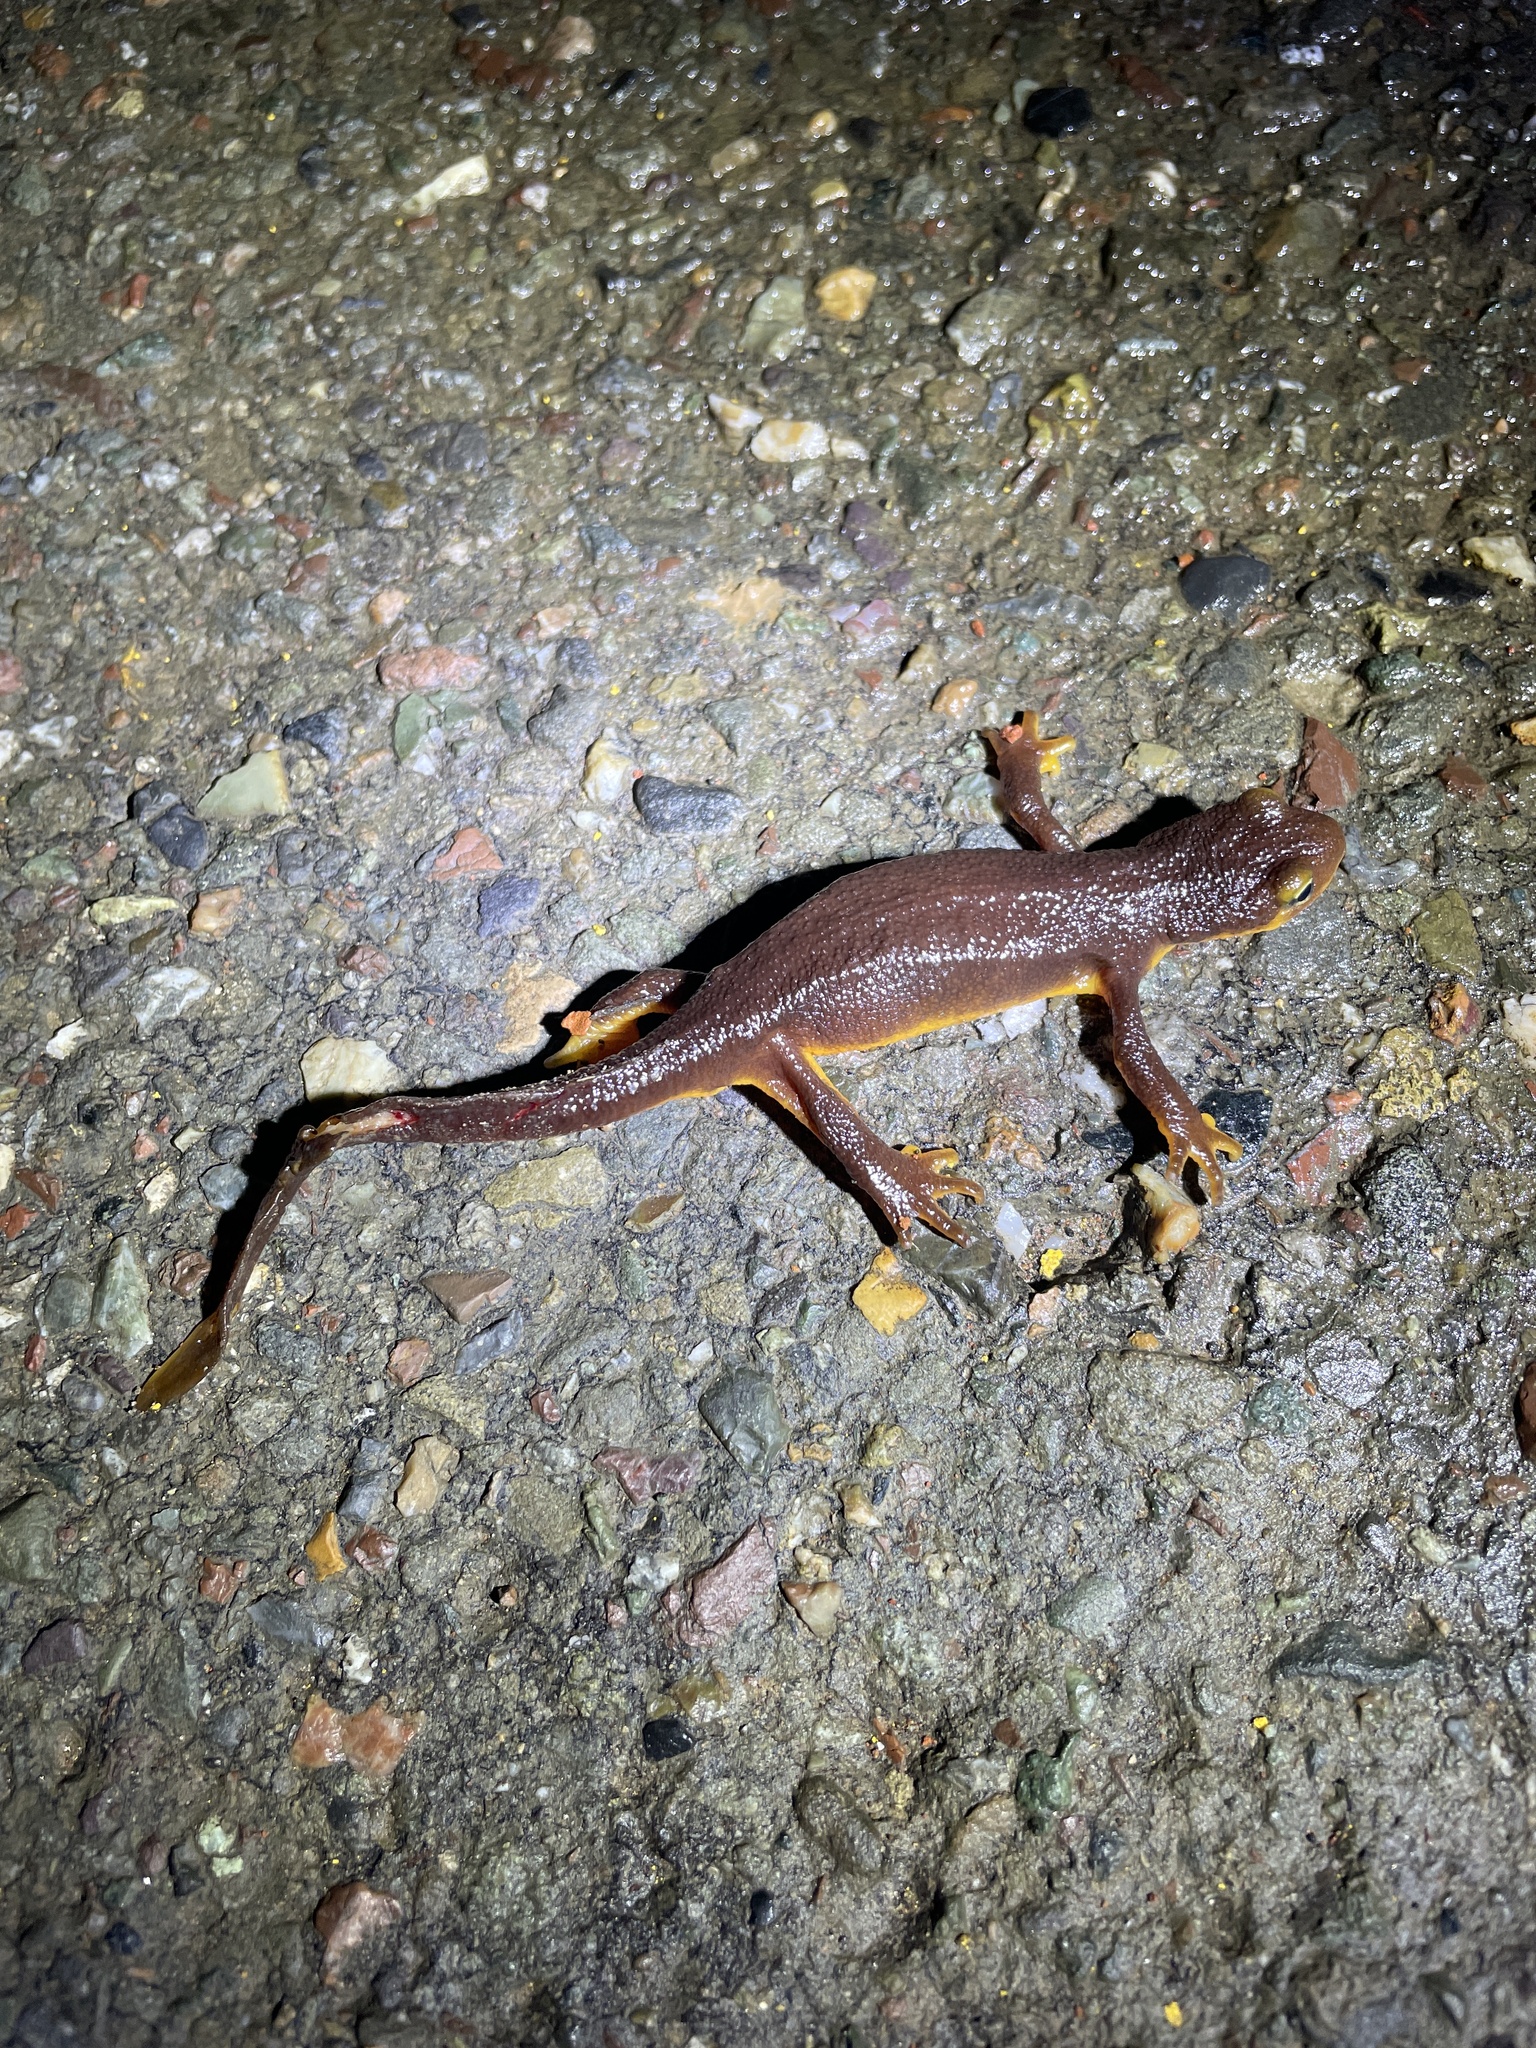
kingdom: Animalia
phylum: Chordata
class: Amphibia
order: Caudata
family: Salamandridae
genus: Taricha
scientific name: Taricha torosa
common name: California newt
